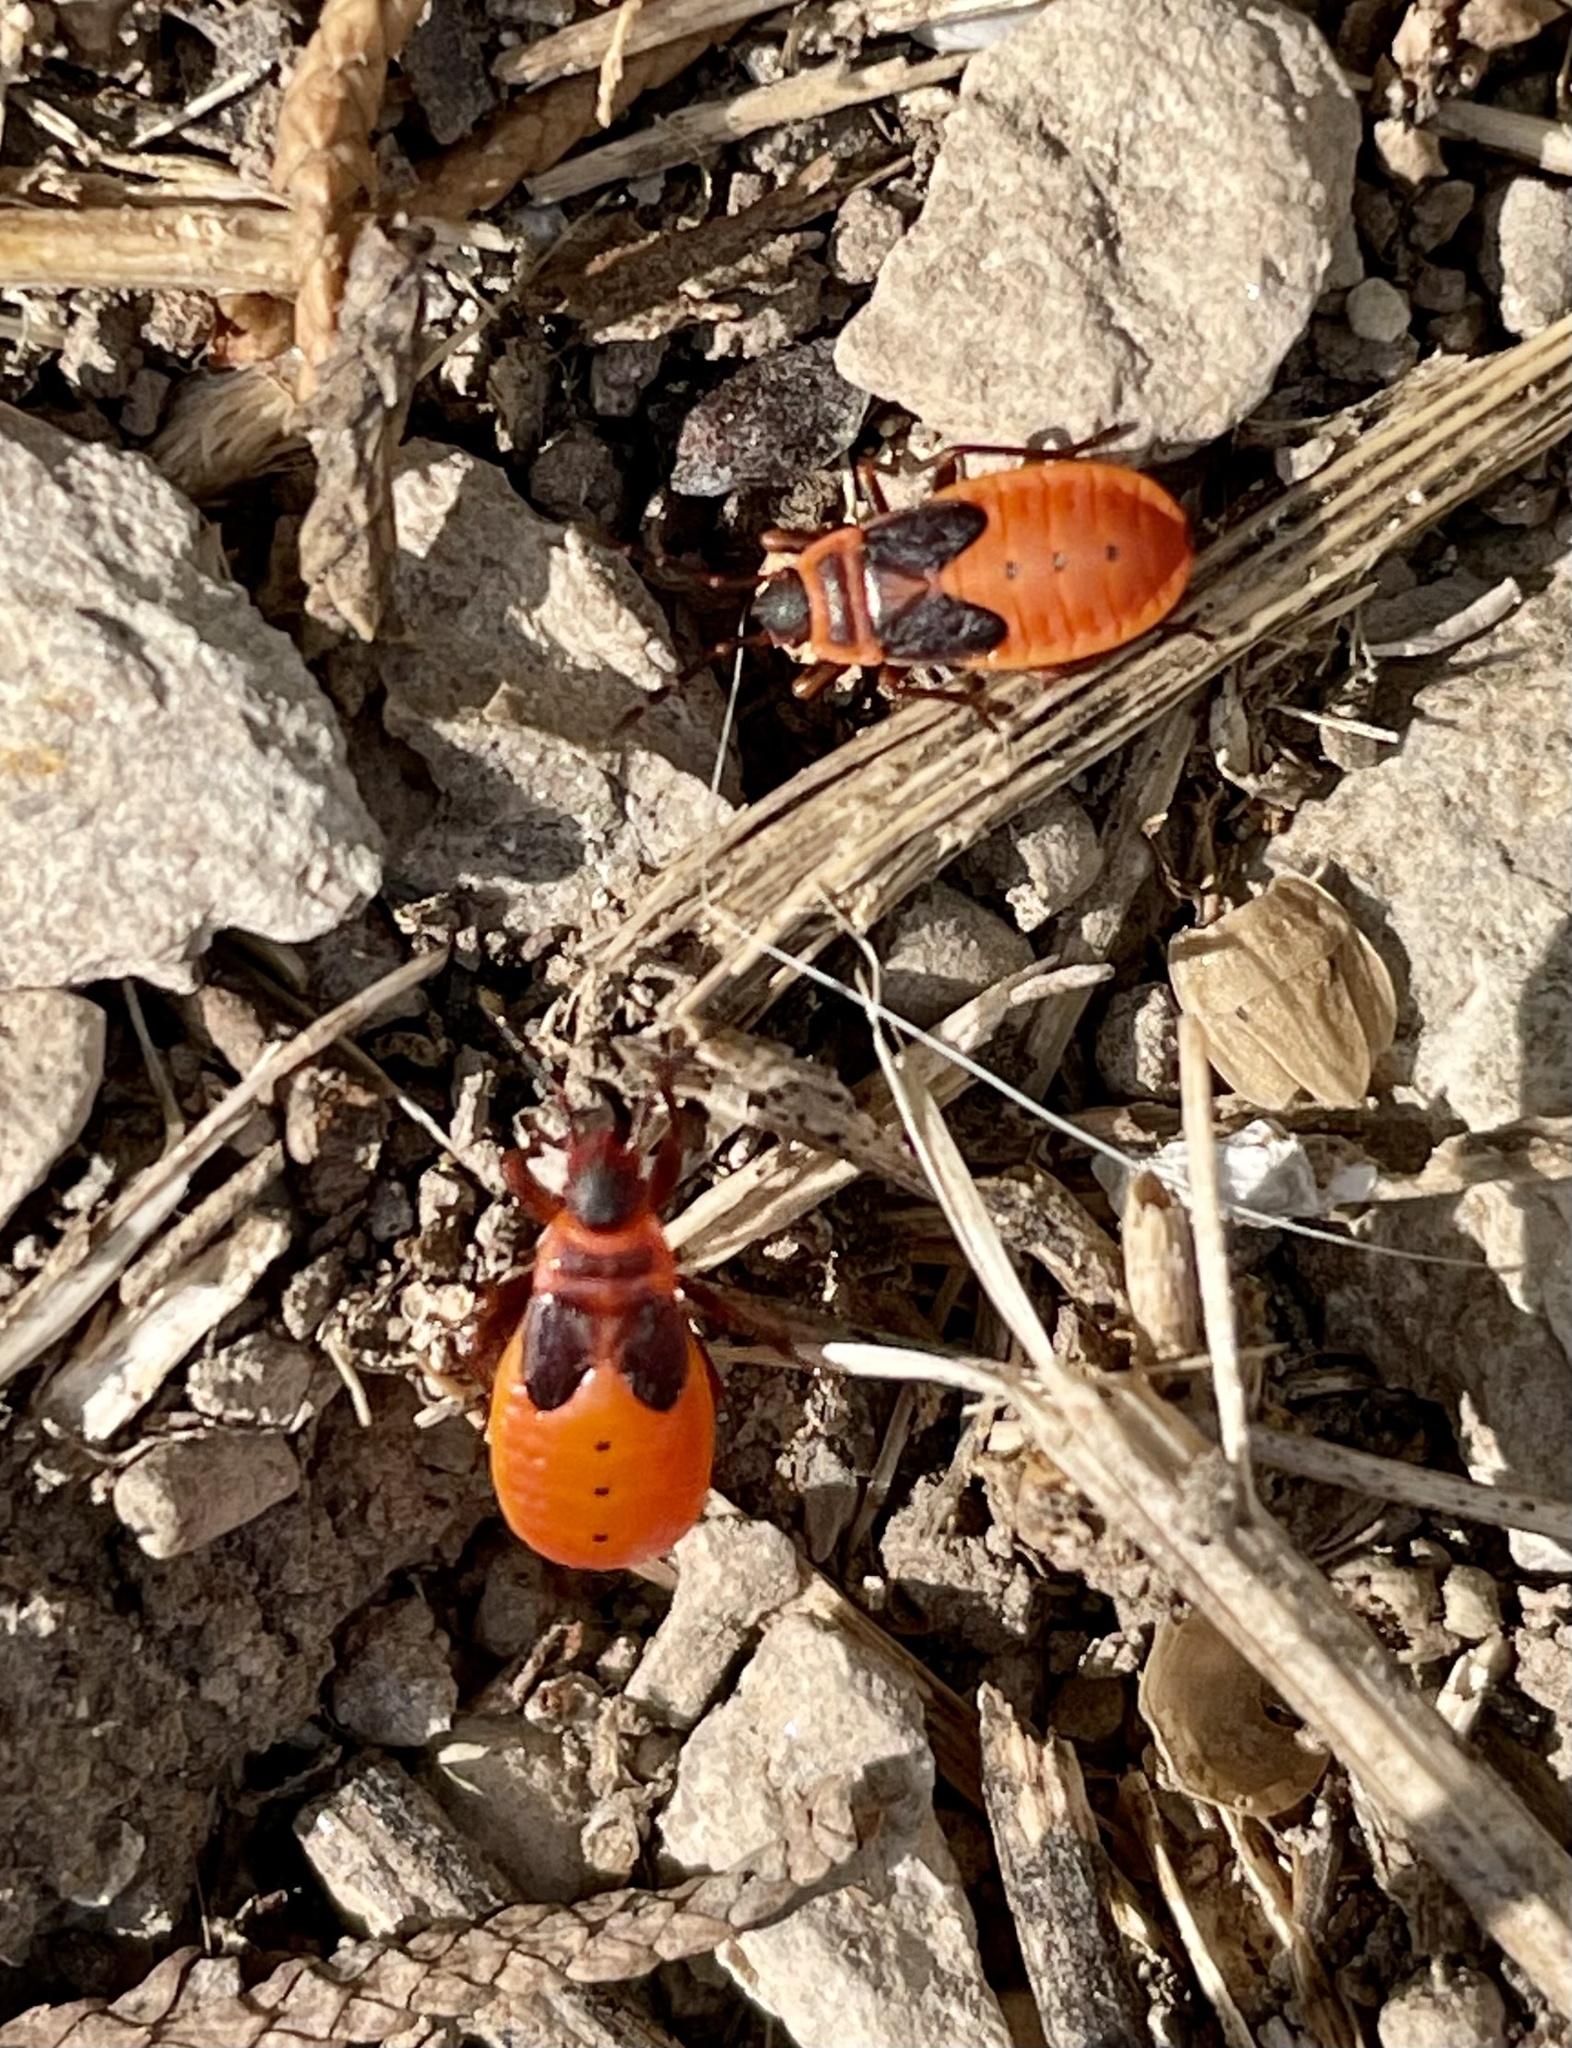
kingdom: Animalia
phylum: Arthropoda
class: Insecta
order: Hemiptera
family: Pyrrhocoridae
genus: Pyrrhocoris
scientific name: Pyrrhocoris apterus
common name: Firebug
